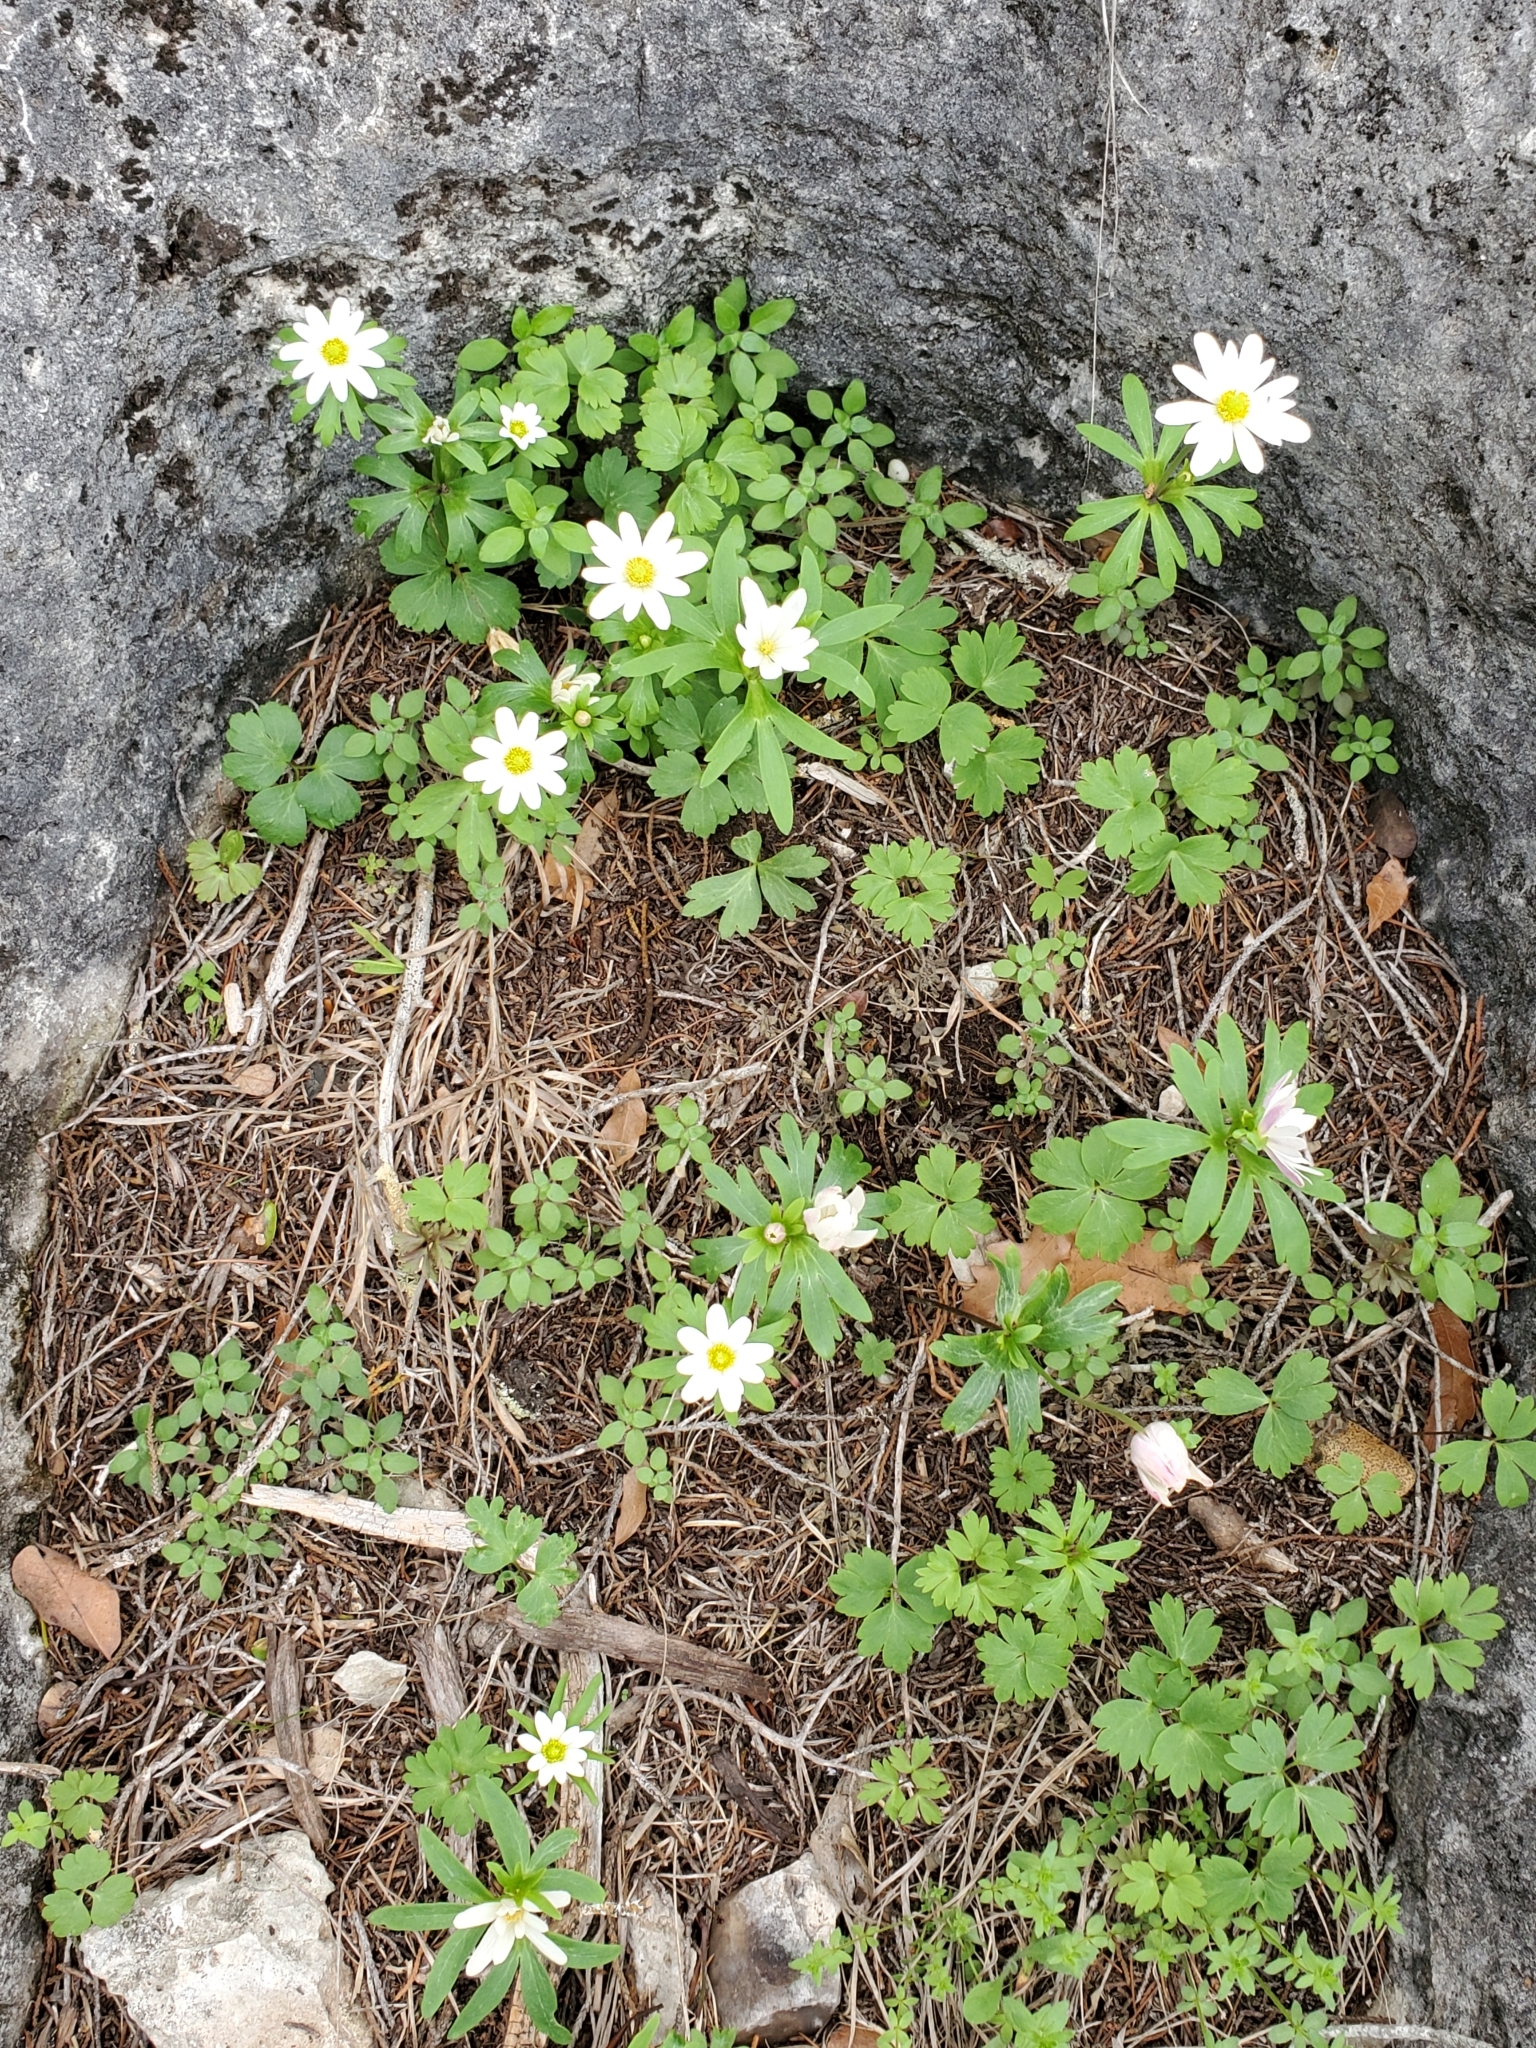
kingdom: Plantae
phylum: Tracheophyta
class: Magnoliopsida
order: Ranunculales
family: Ranunculaceae
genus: Anemone
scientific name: Anemone edwardsiana
